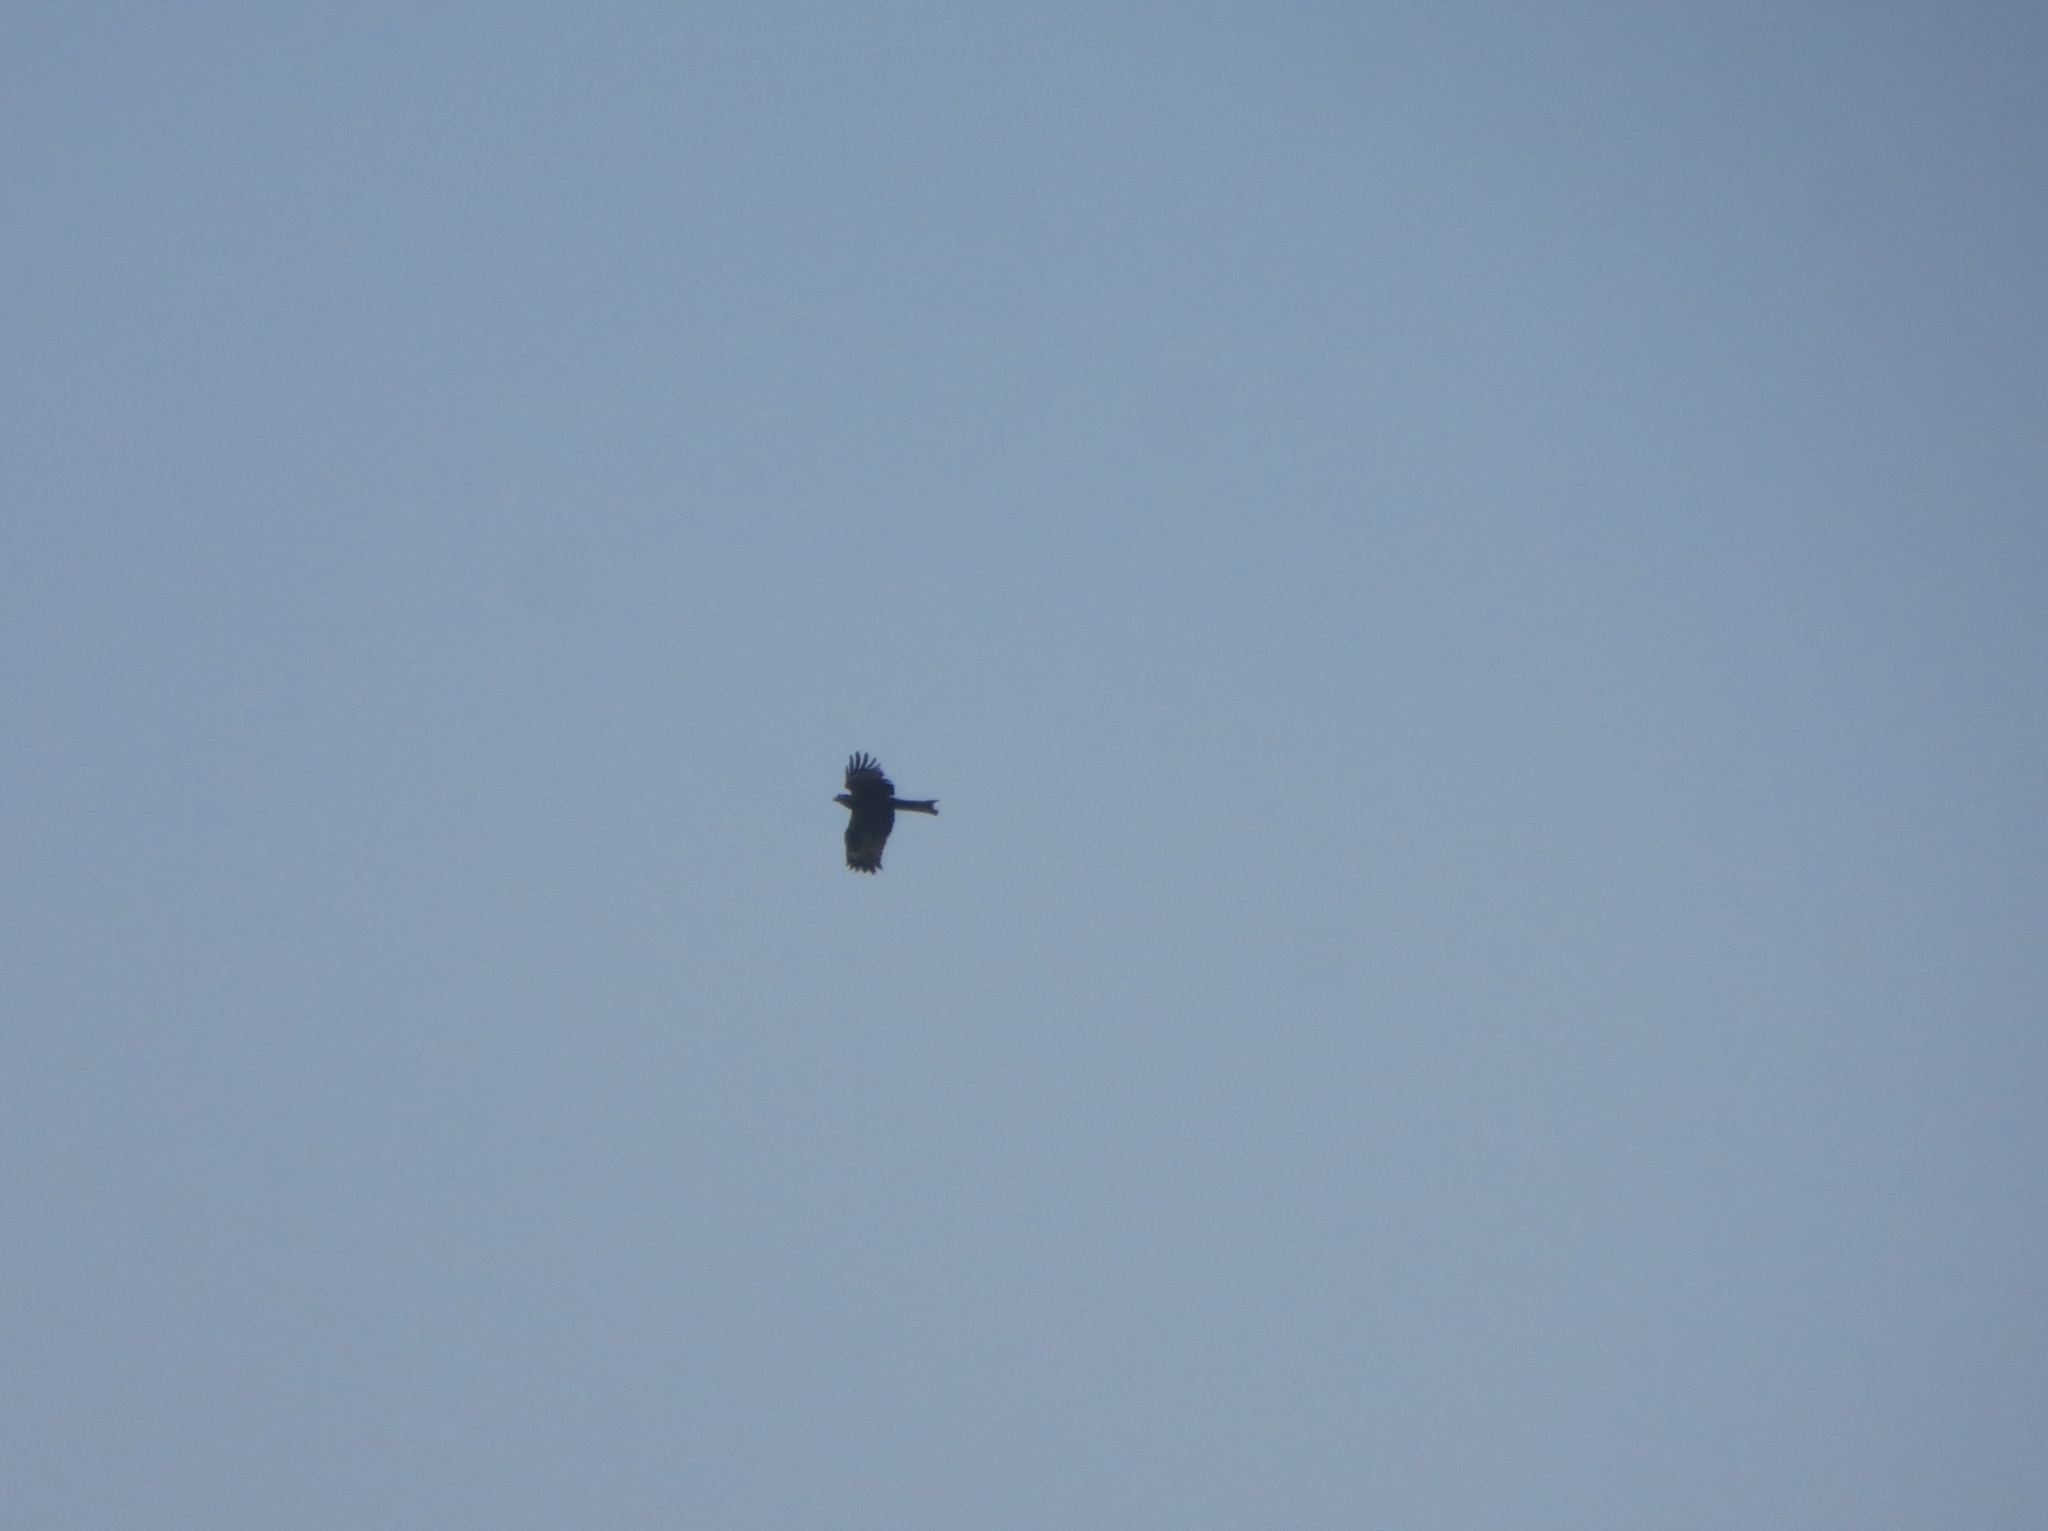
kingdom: Animalia
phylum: Chordata
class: Aves
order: Accipitriformes
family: Accipitridae
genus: Milvus
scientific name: Milvus migrans
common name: Black kite
